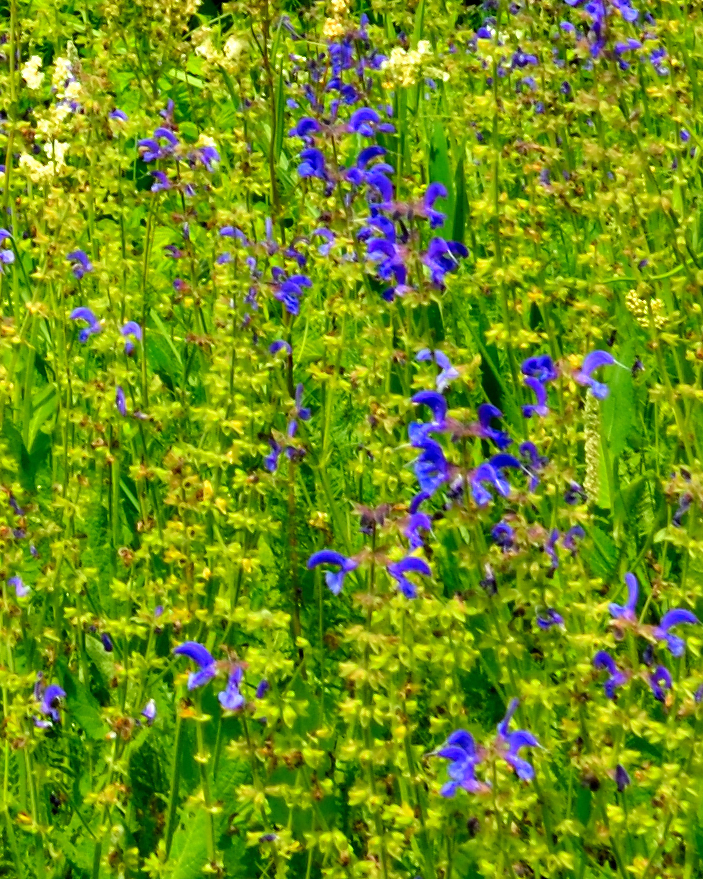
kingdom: Plantae
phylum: Tracheophyta
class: Magnoliopsida
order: Lamiales
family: Lamiaceae
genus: Salvia
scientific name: Salvia pratensis
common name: Meadow sage
